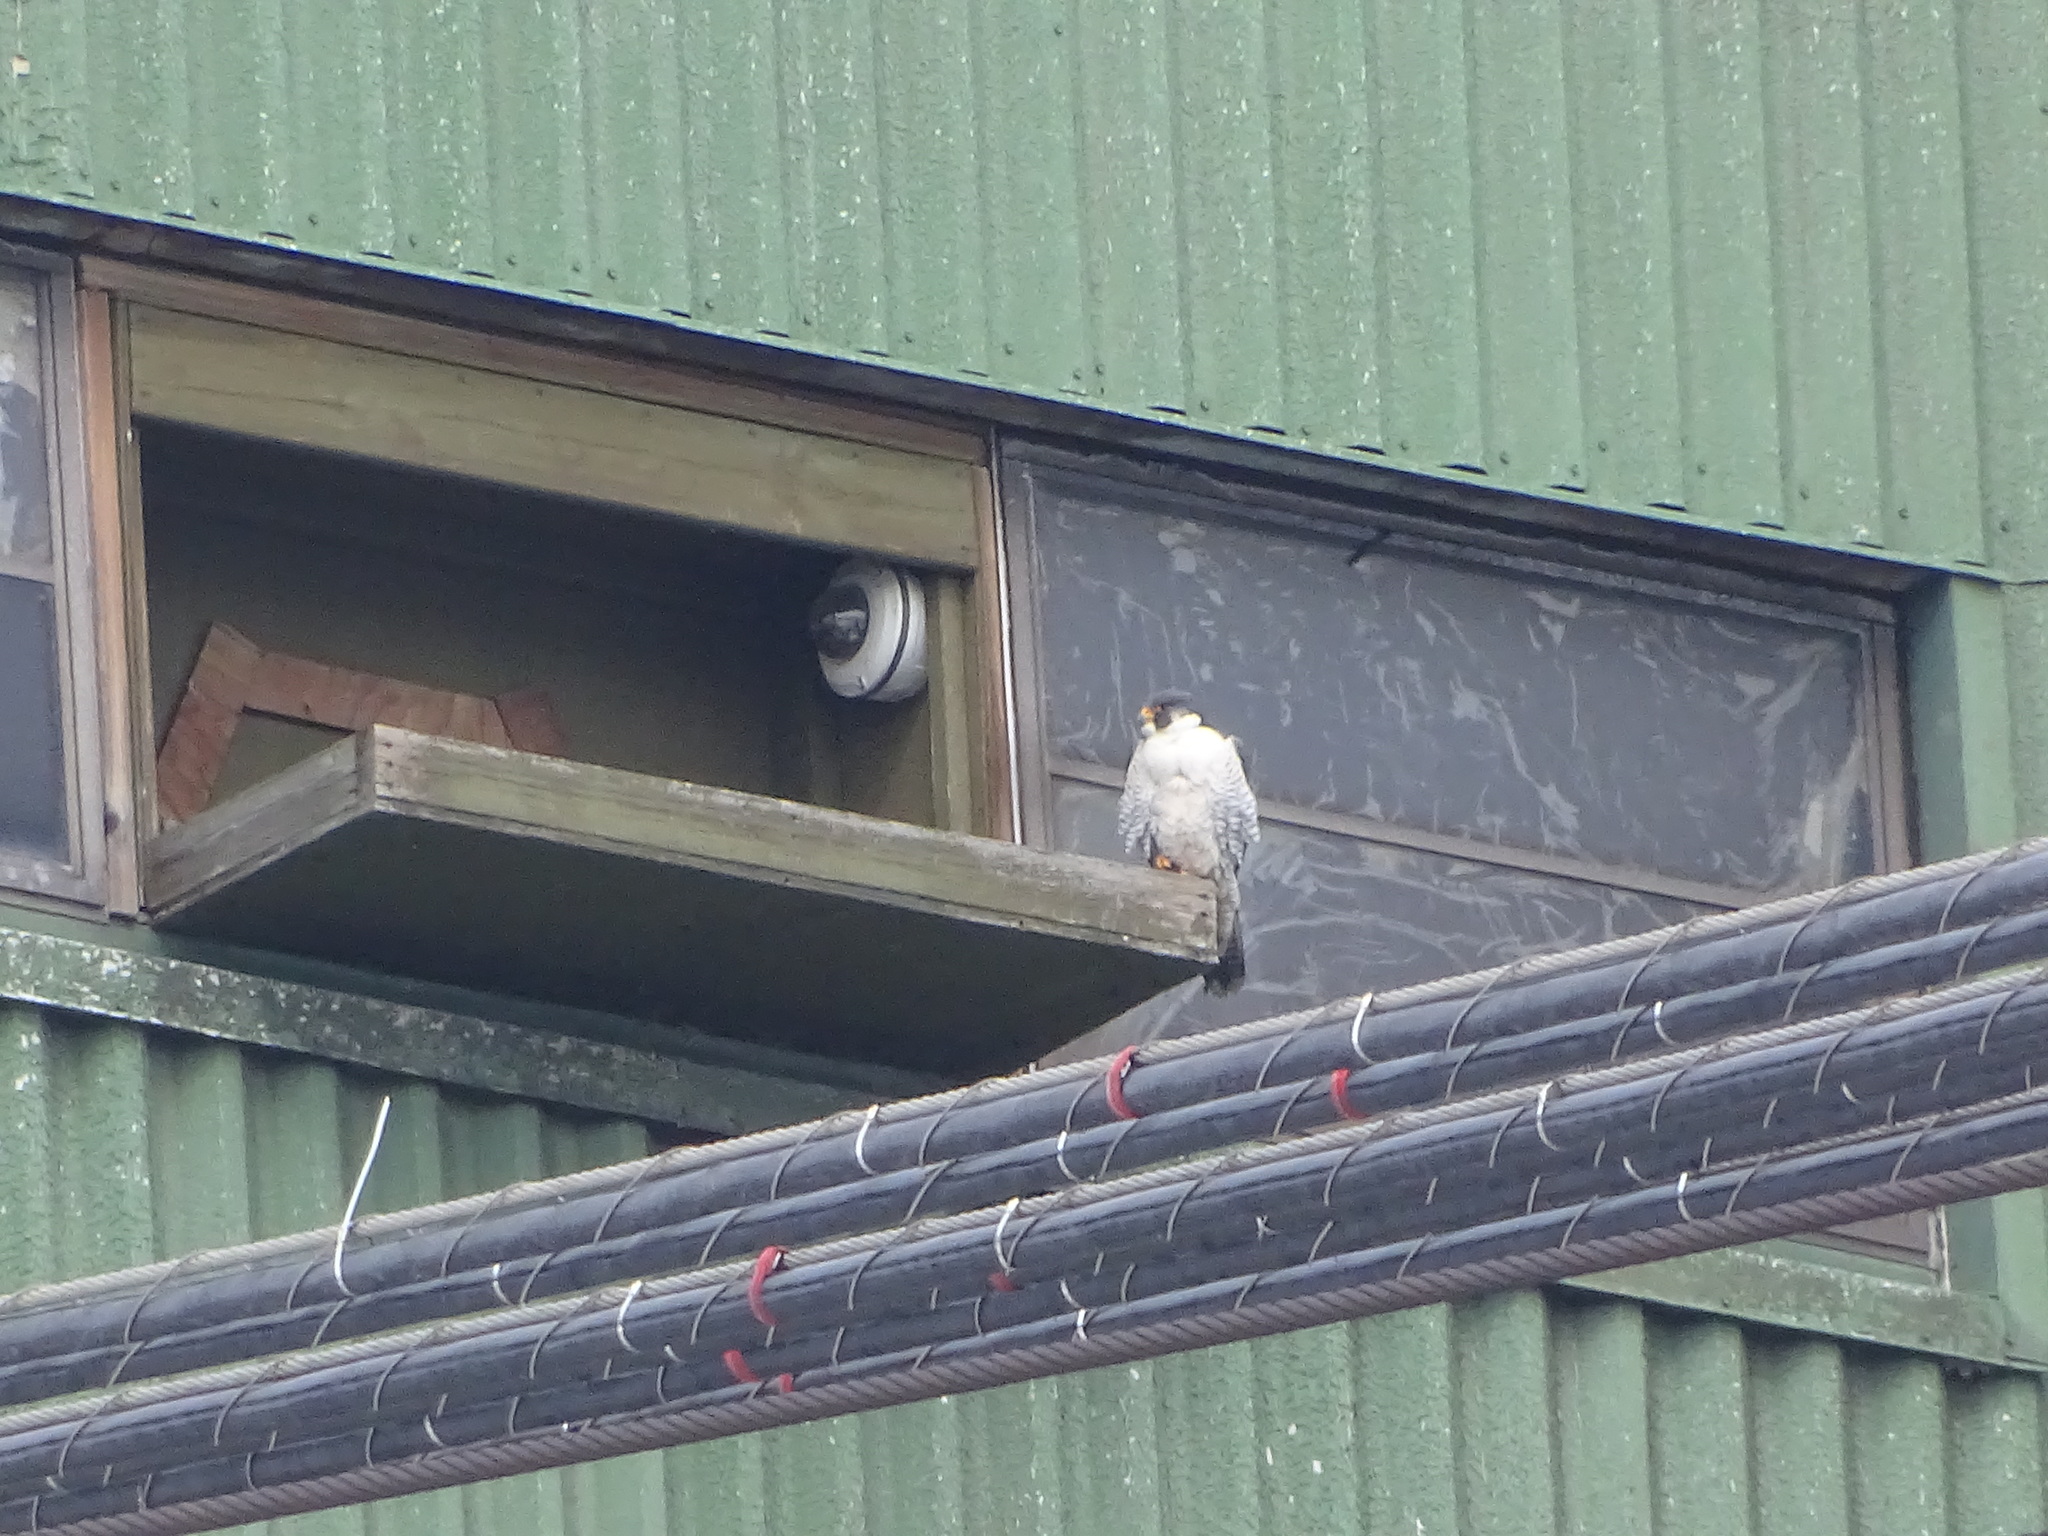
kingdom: Animalia
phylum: Chordata
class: Aves
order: Falconiformes
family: Falconidae
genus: Falco
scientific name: Falco peregrinus
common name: Peregrine falcon
